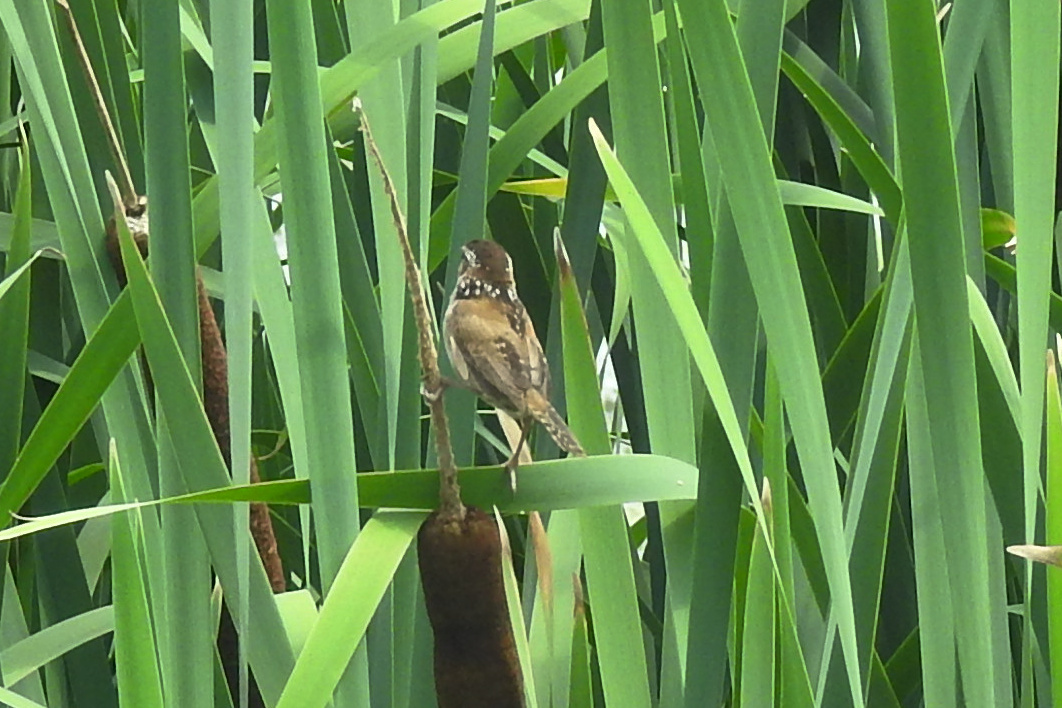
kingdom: Animalia
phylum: Chordata
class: Aves
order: Passeriformes
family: Troglodytidae
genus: Cistothorus
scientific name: Cistothorus palustris
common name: Marsh wren
